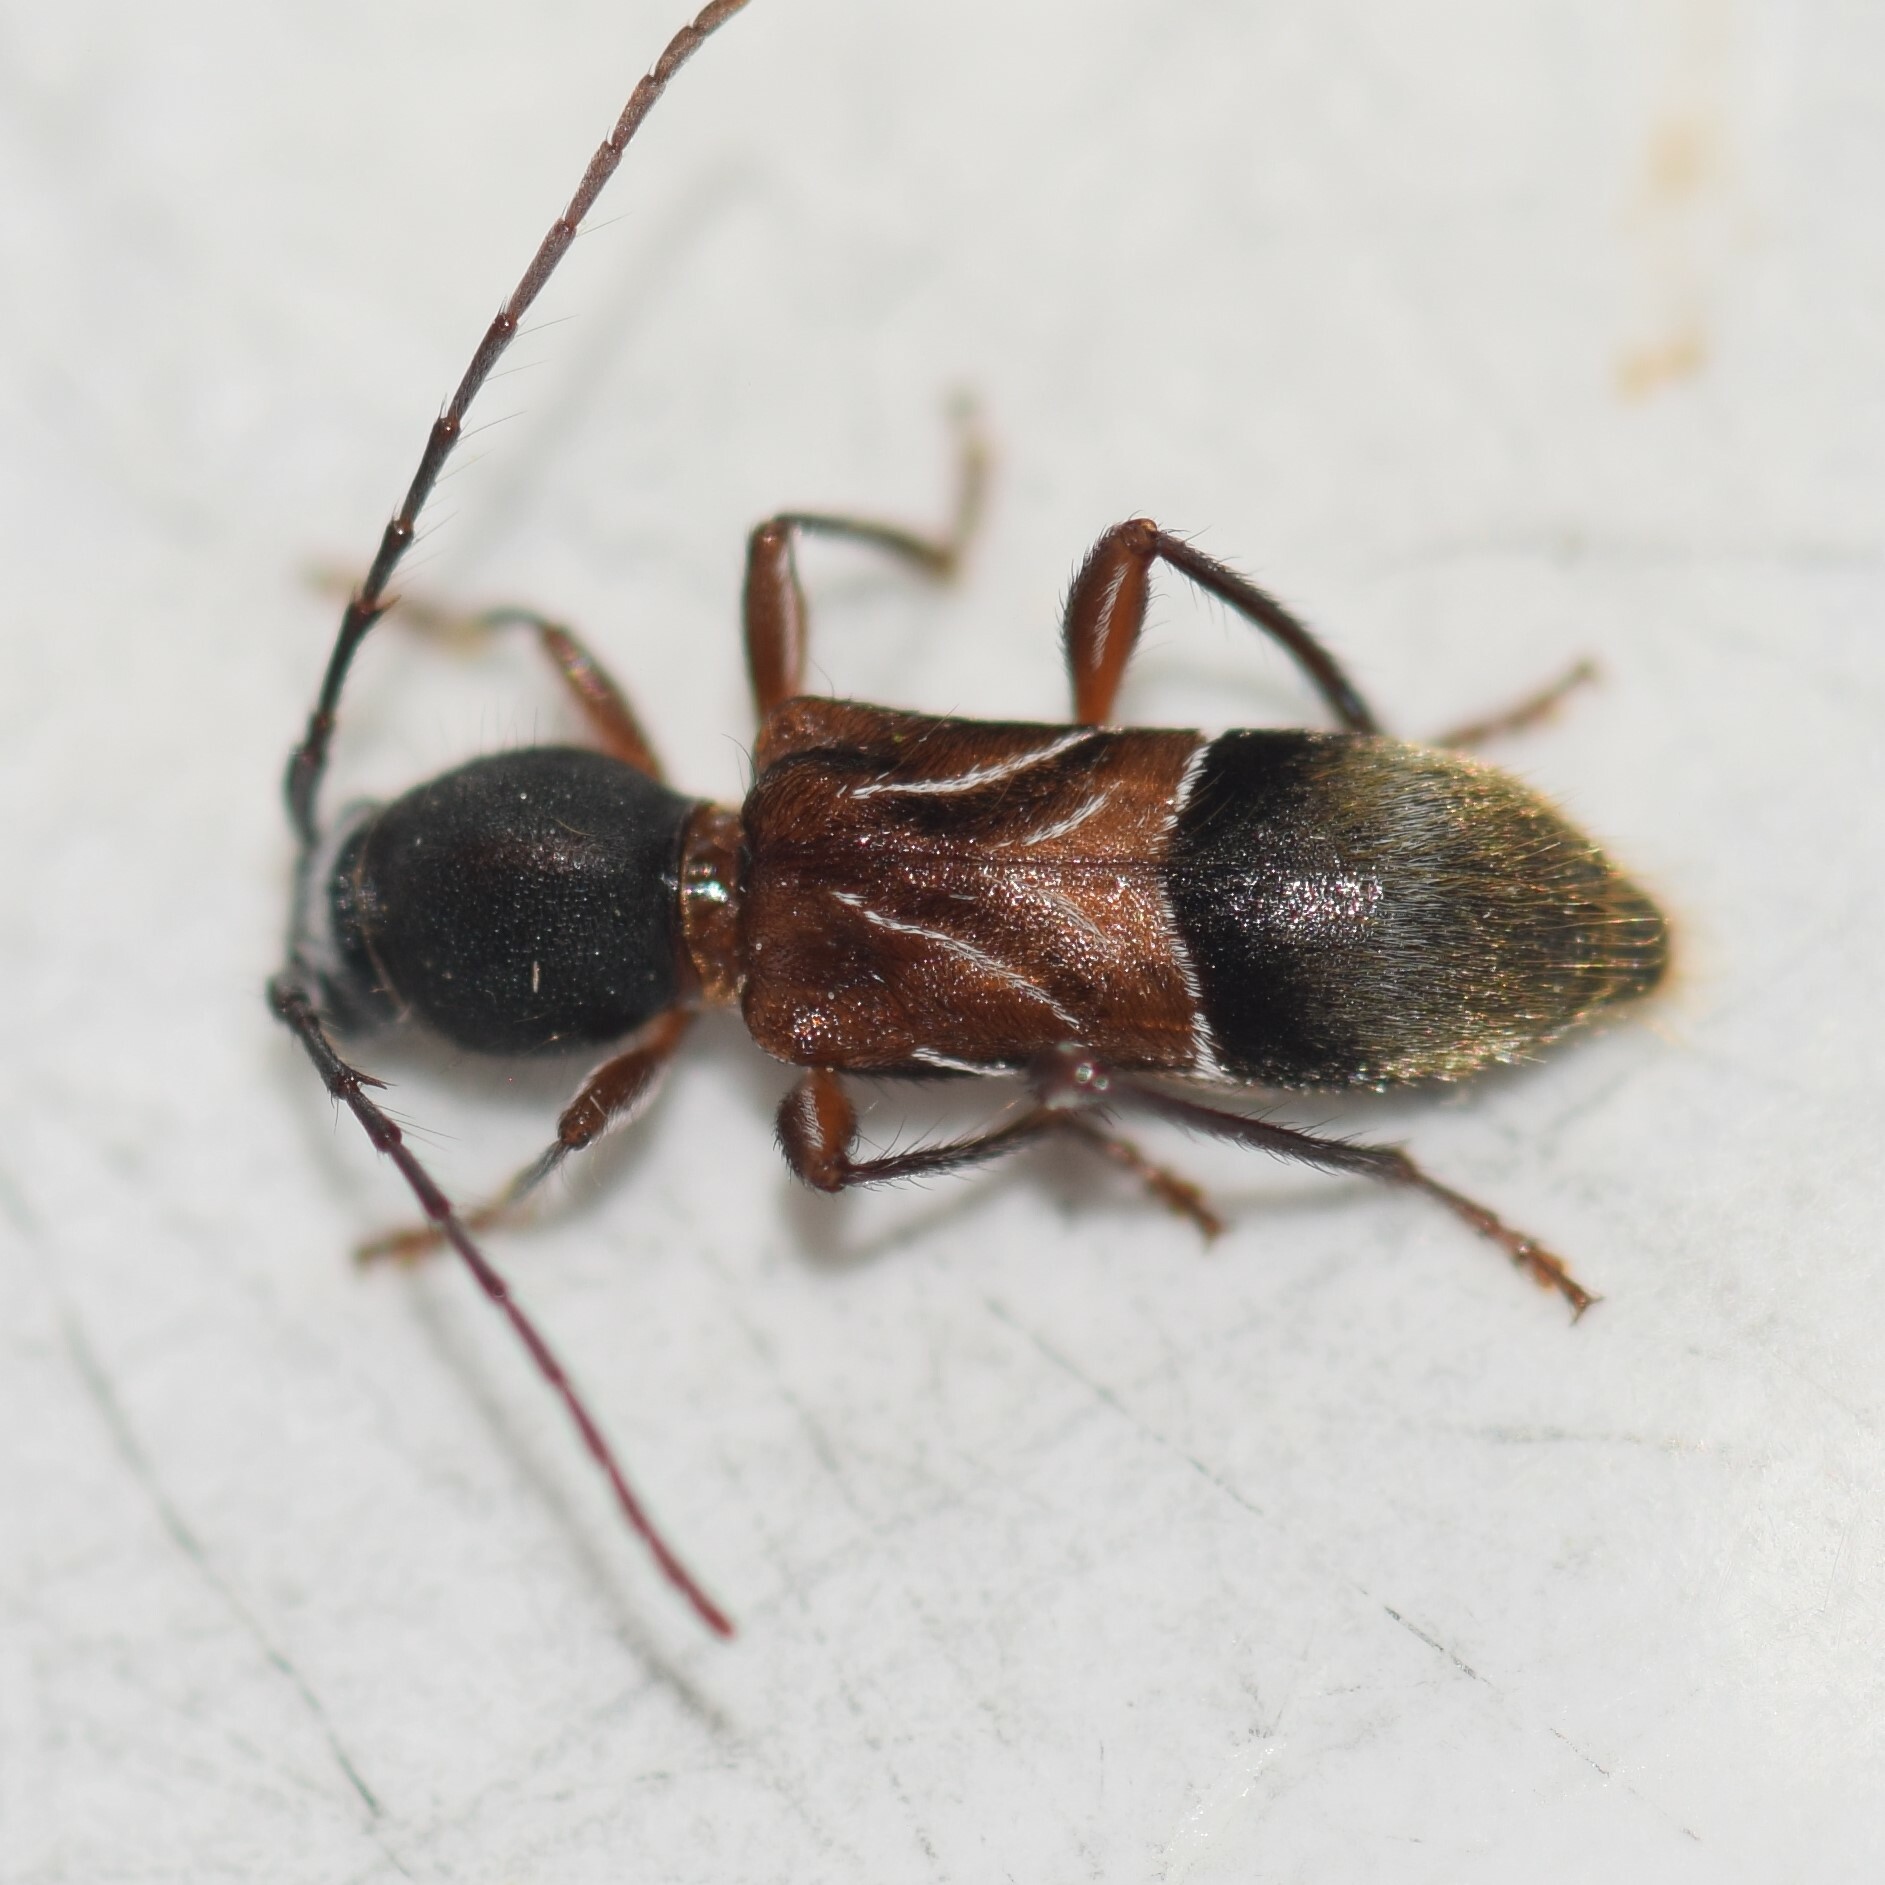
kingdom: Animalia
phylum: Arthropoda
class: Insecta
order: Coleoptera
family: Cerambycidae
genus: Cyrtophorus
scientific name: Cyrtophorus verrucosus
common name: Ant-like longhorn beetle
